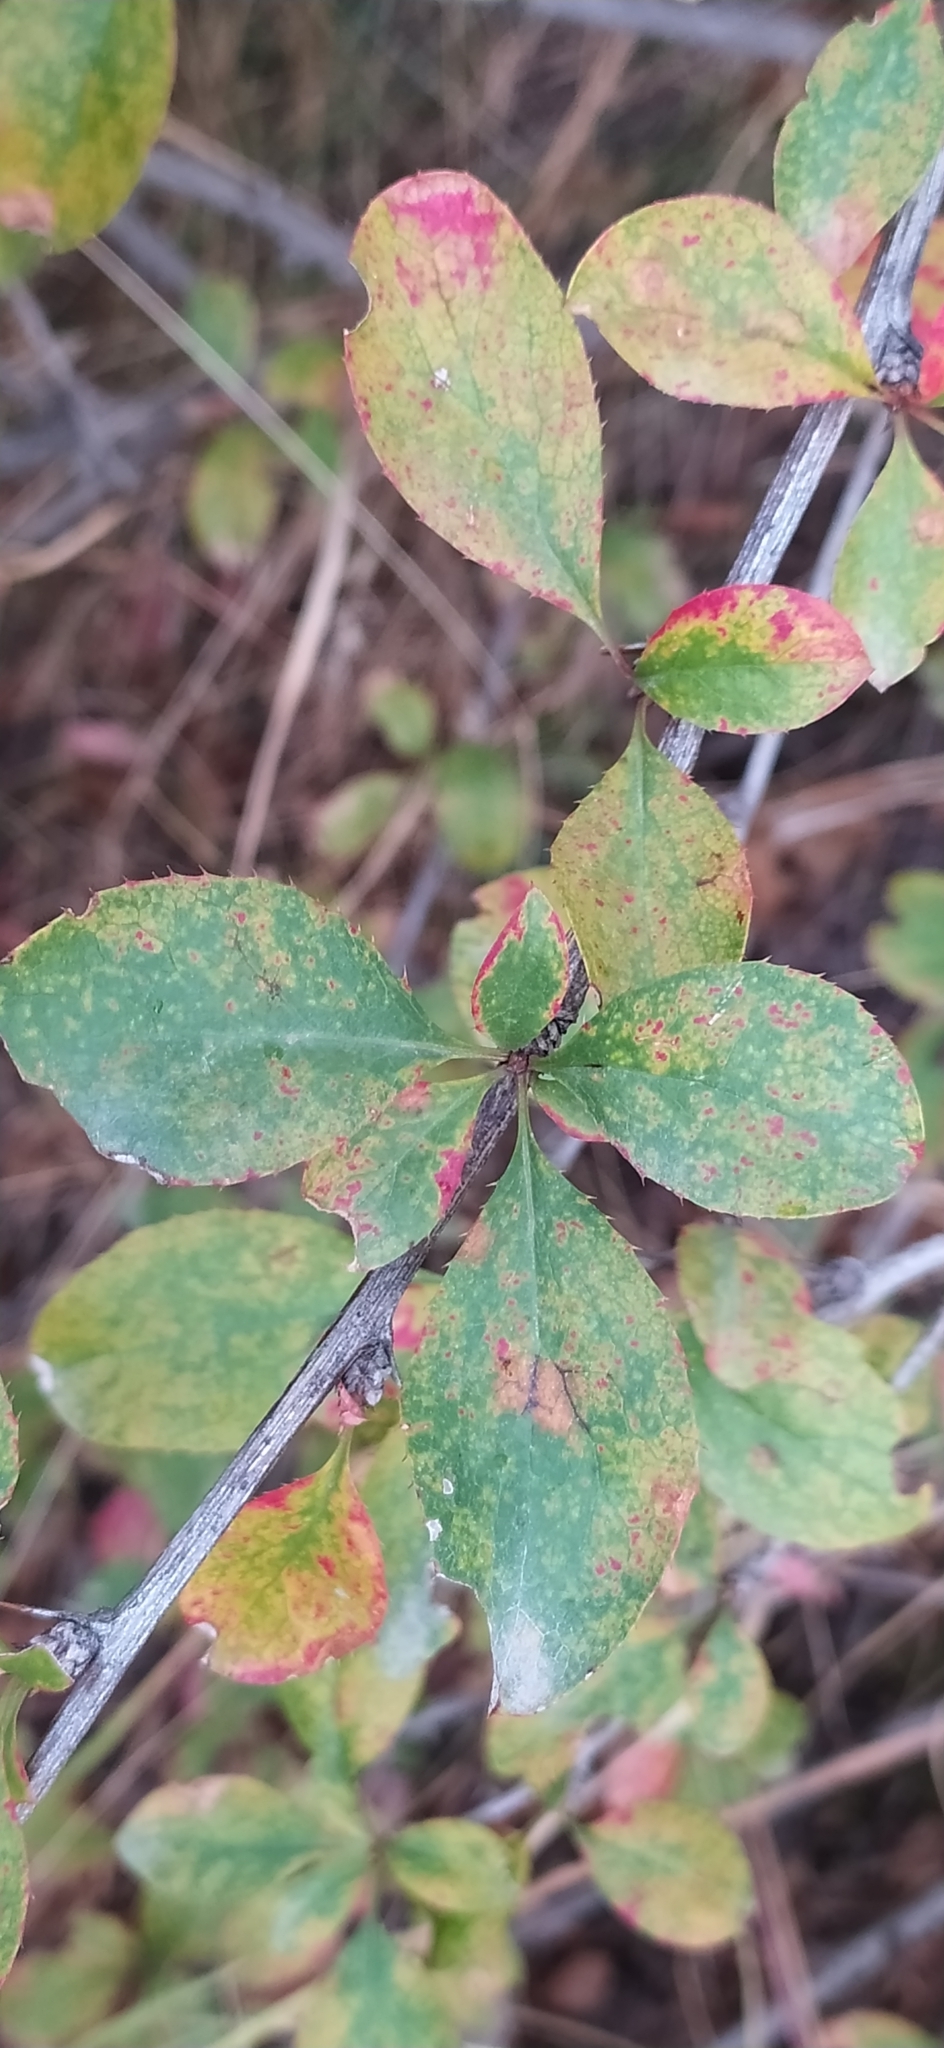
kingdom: Plantae
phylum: Tracheophyta
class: Magnoliopsida
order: Ranunculales
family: Berberidaceae
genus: Berberis
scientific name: Berberis integerrima
